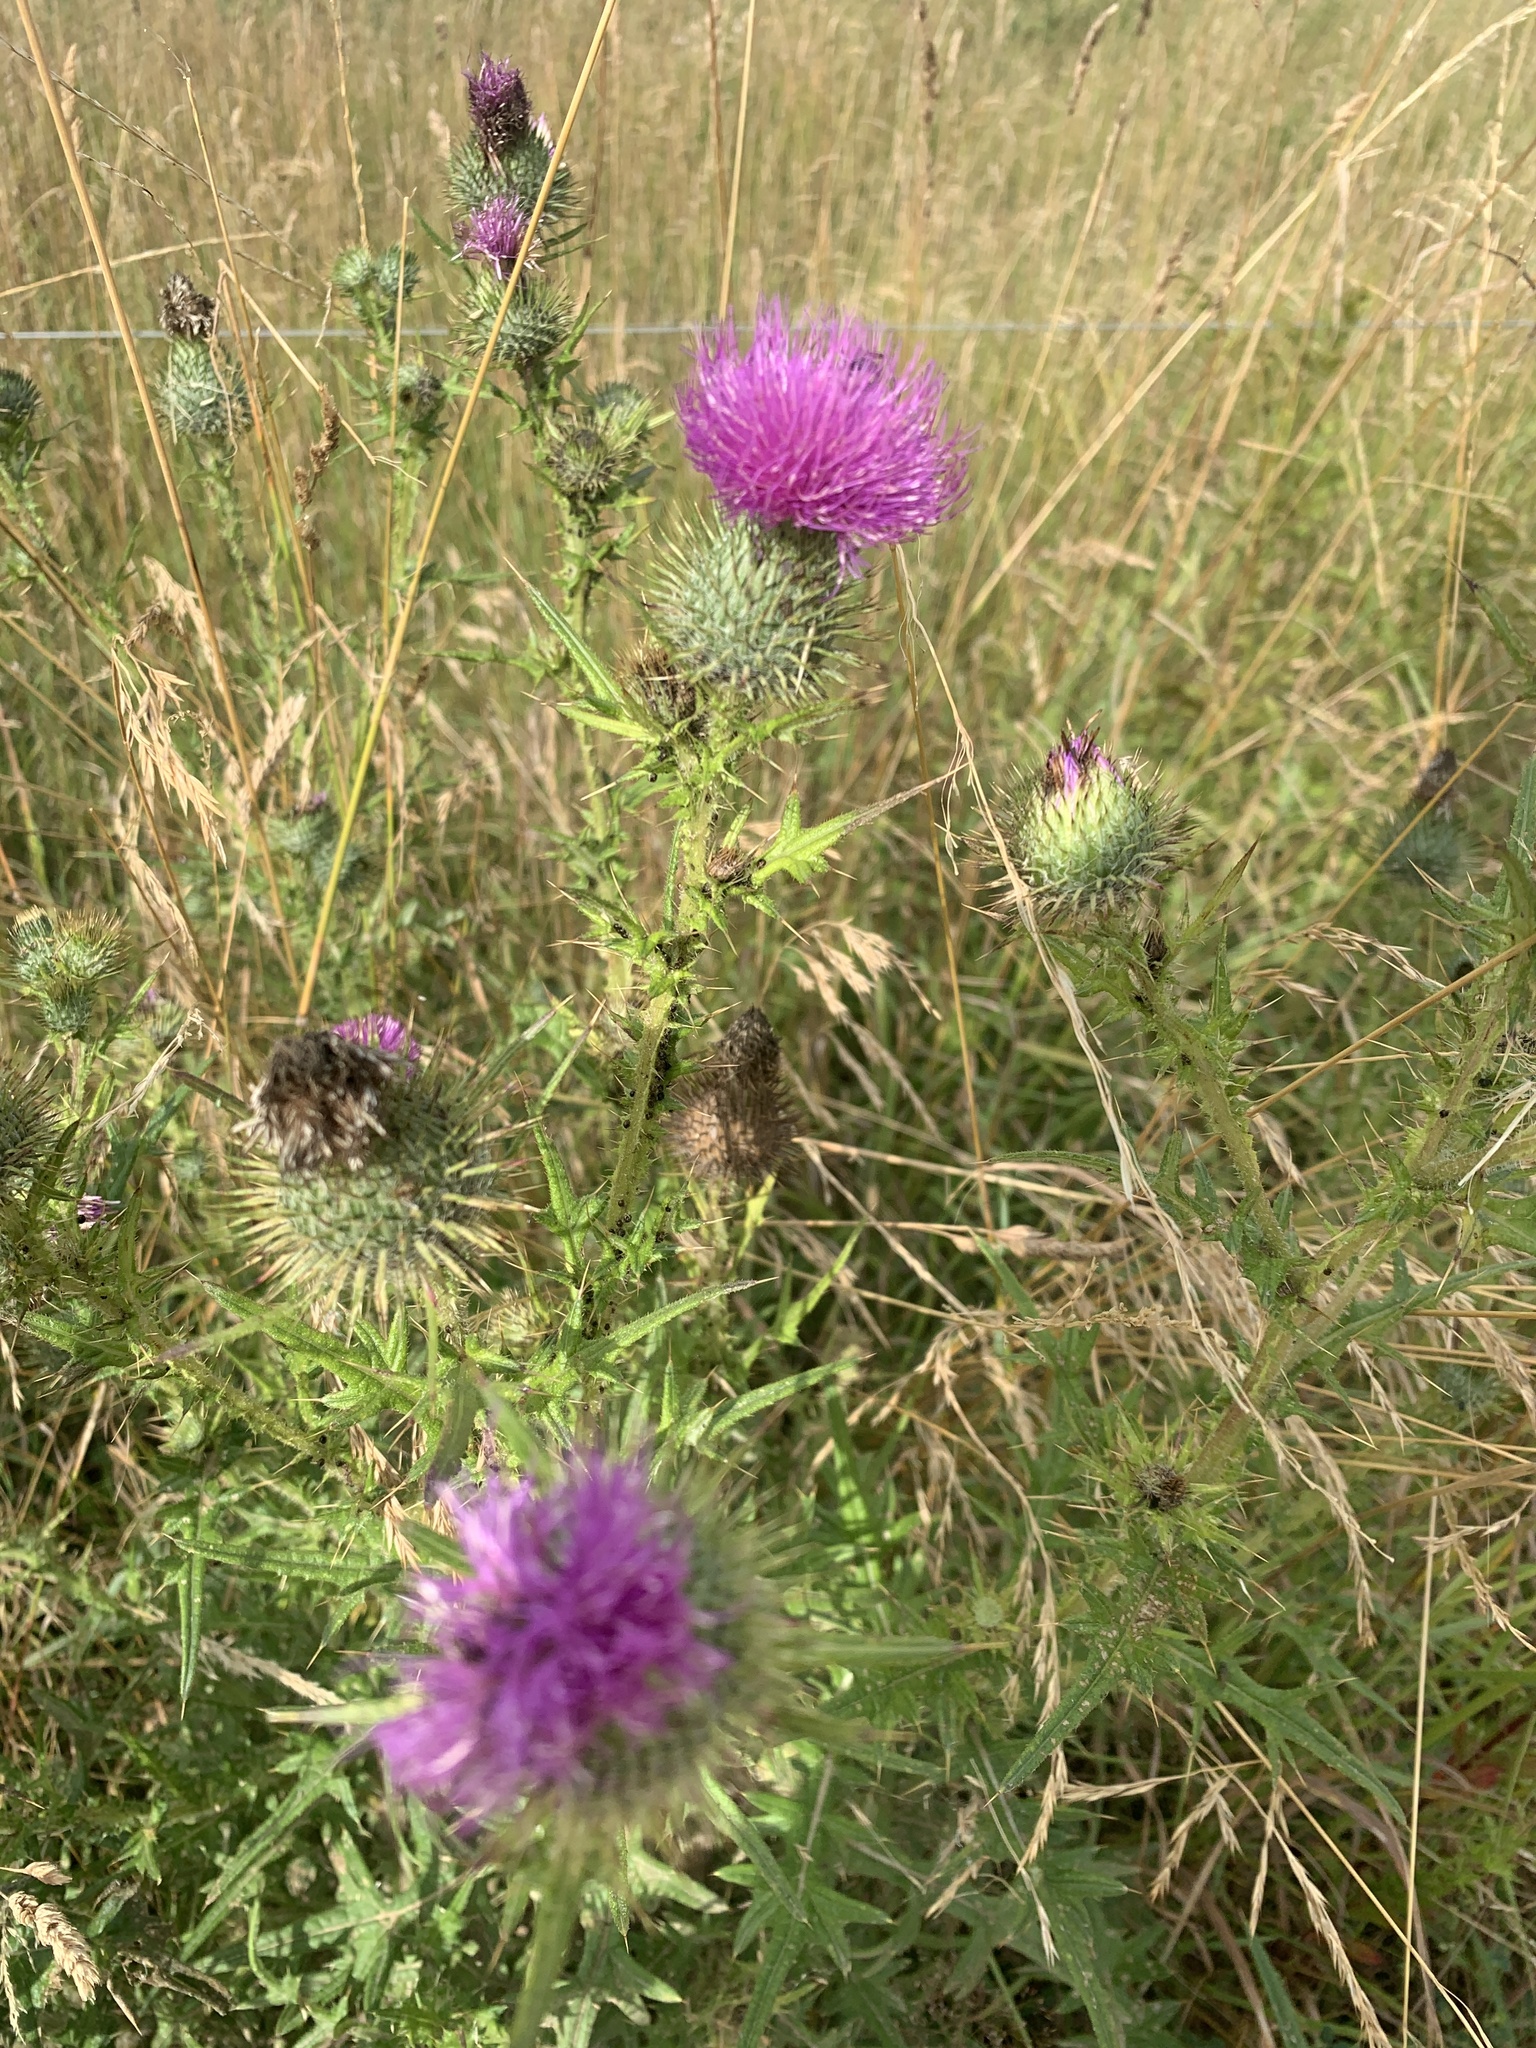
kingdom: Plantae
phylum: Tracheophyta
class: Magnoliopsida
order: Asterales
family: Asteraceae
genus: Cirsium
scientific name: Cirsium vulgare
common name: Bull thistle
